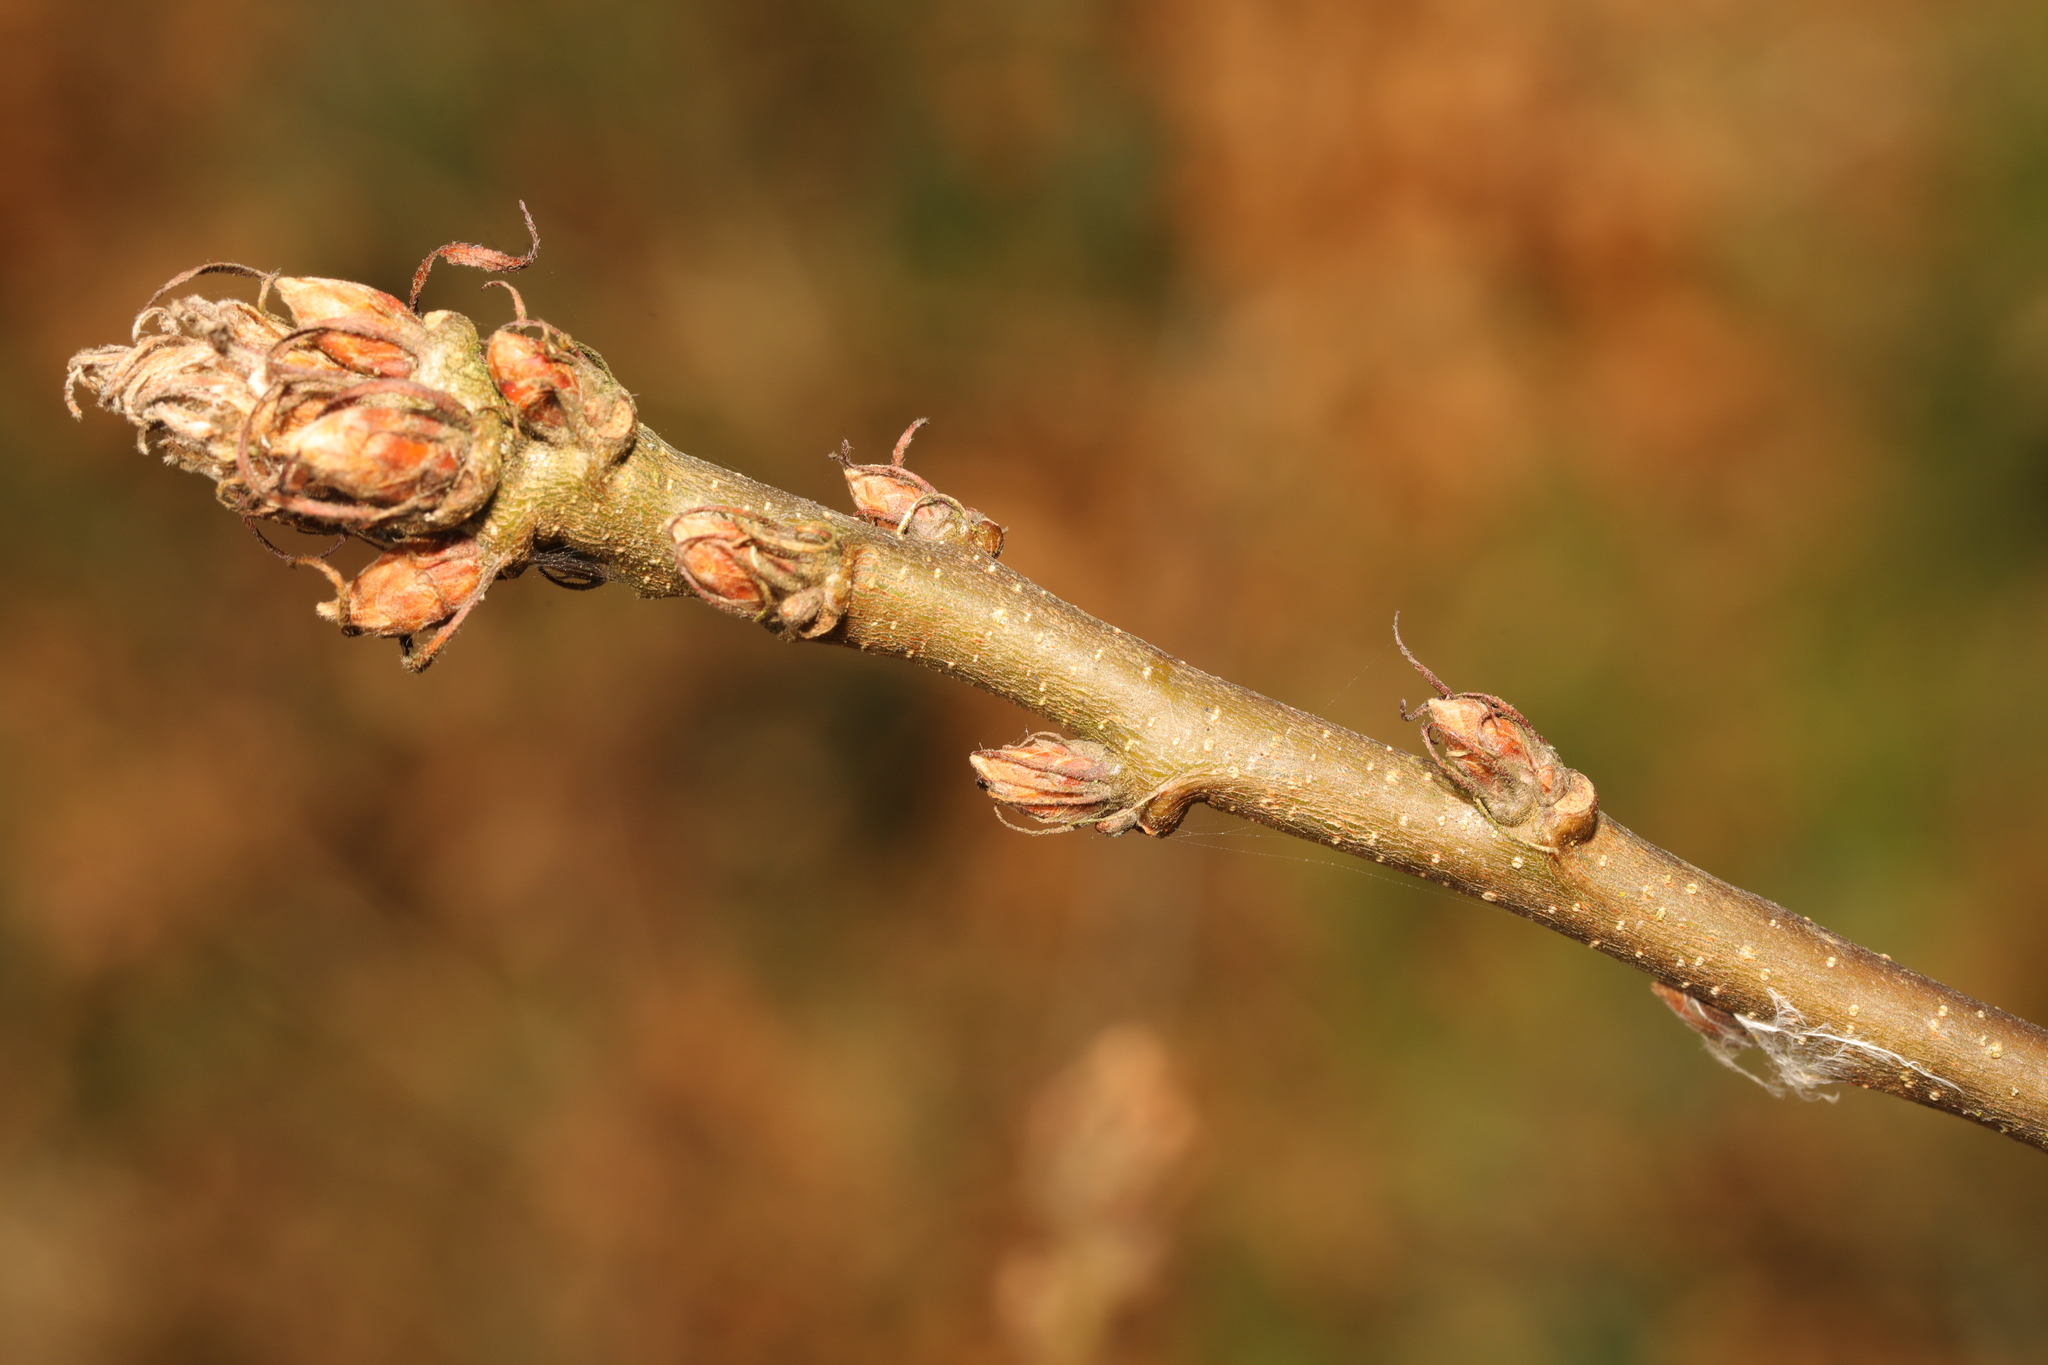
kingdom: Plantae
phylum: Tracheophyta
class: Magnoliopsida
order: Fagales
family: Fagaceae
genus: Quercus
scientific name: Quercus cerris
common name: Turkey oak
